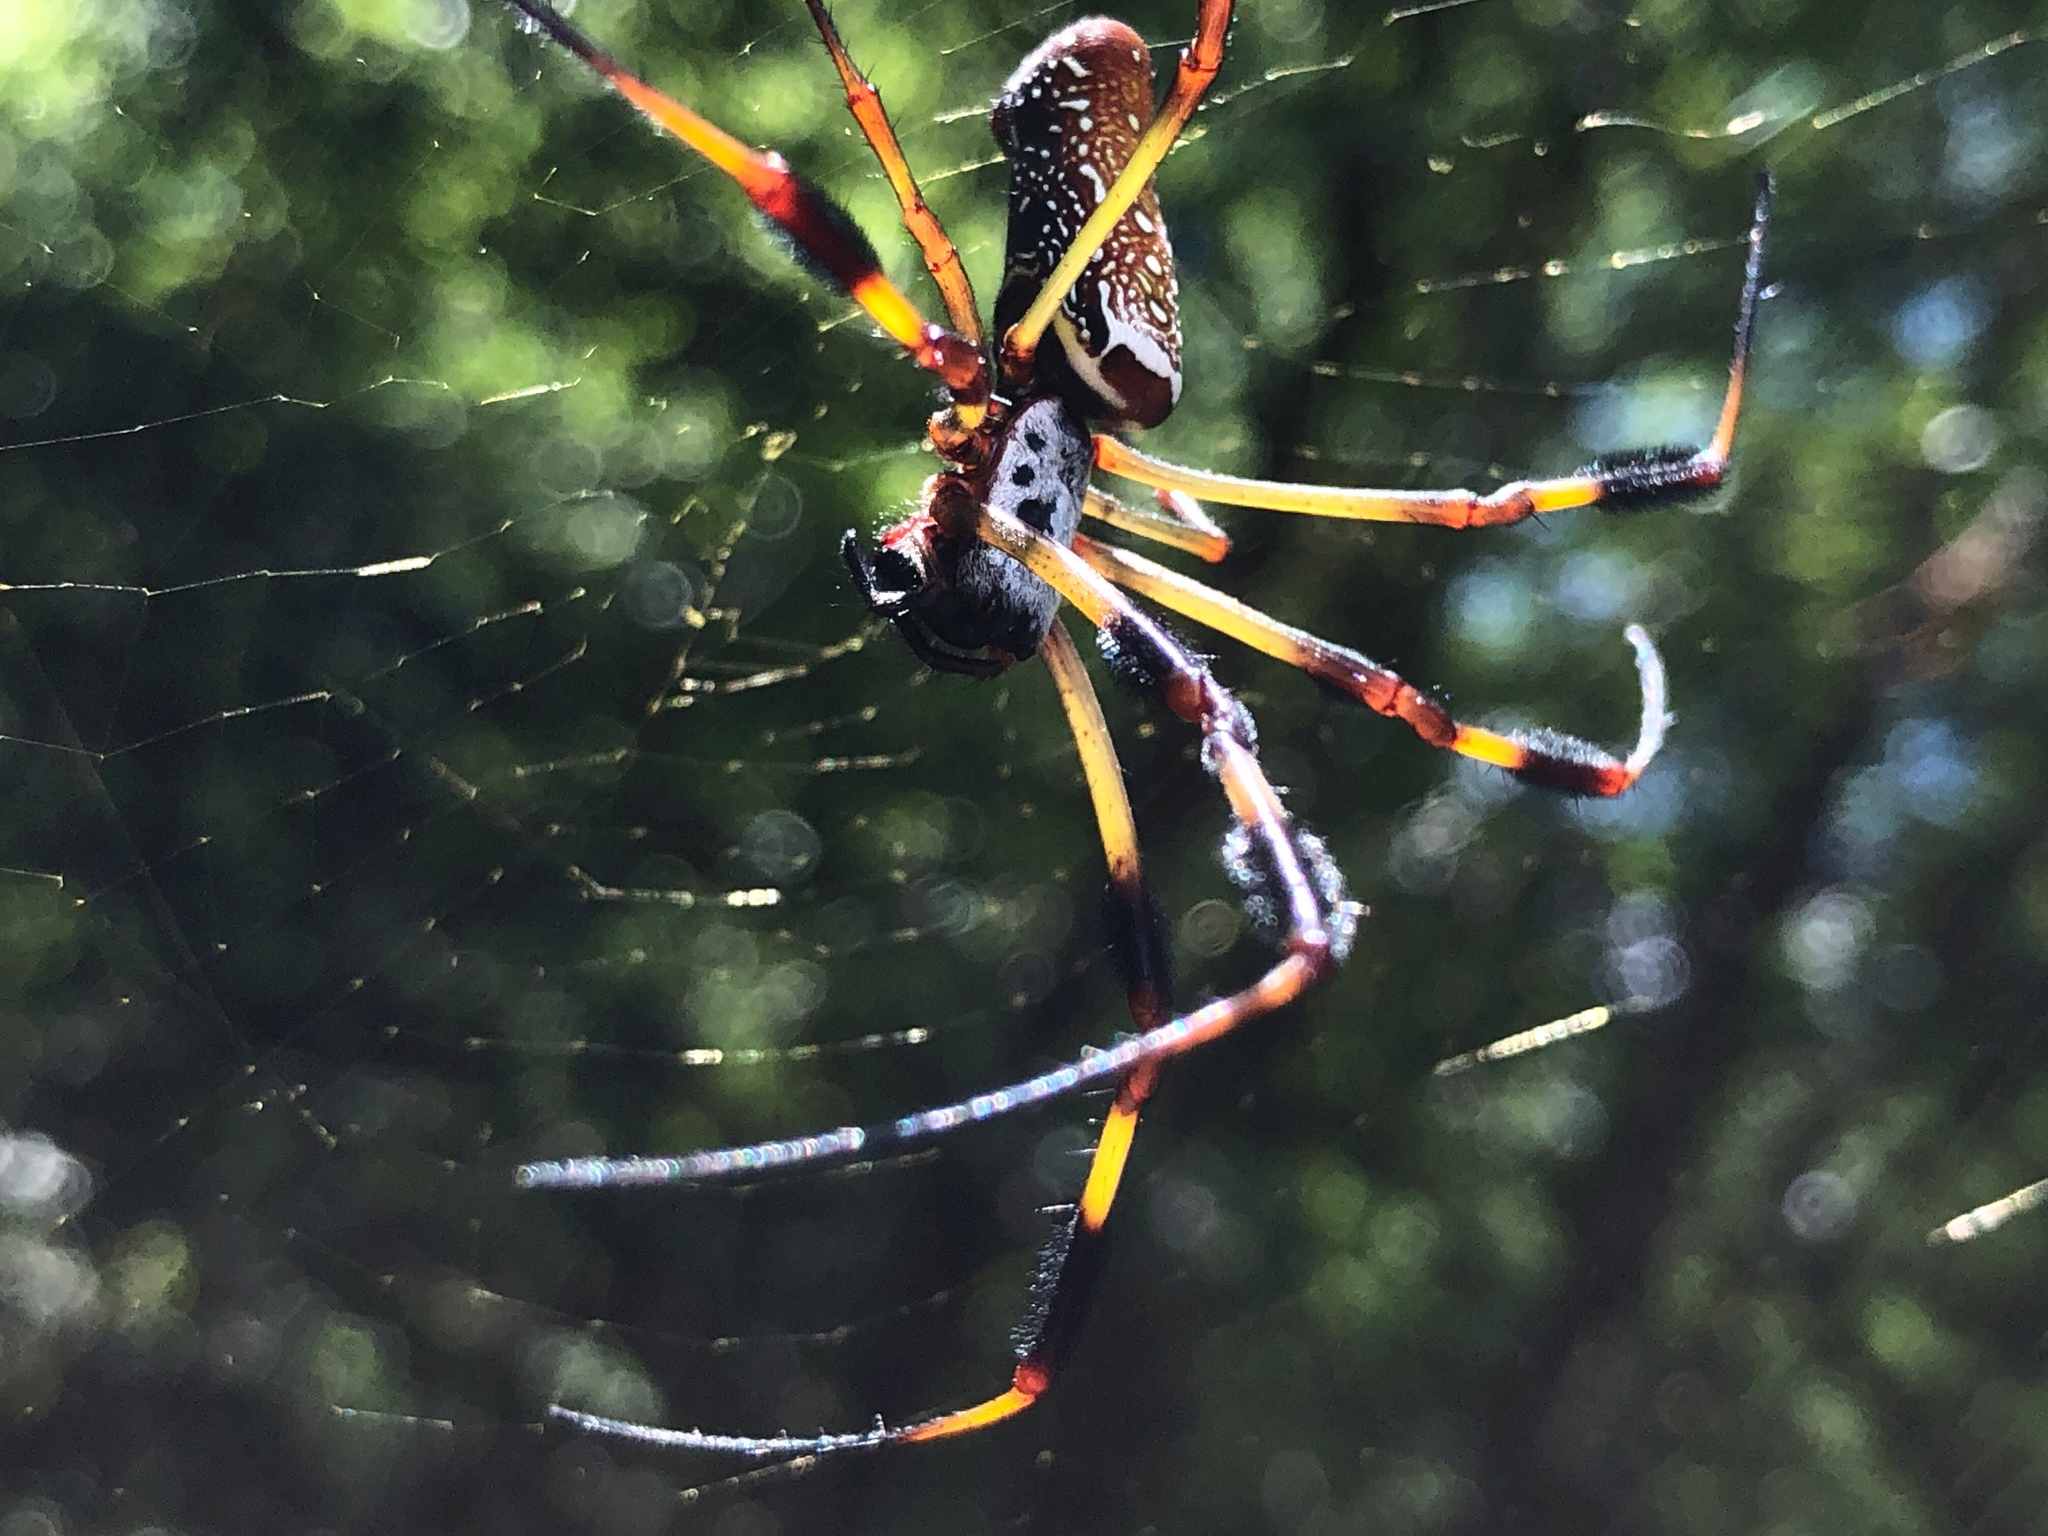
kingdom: Animalia
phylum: Arthropoda
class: Arachnida
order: Araneae
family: Araneidae
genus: Trichonephila
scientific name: Trichonephila clavipes
